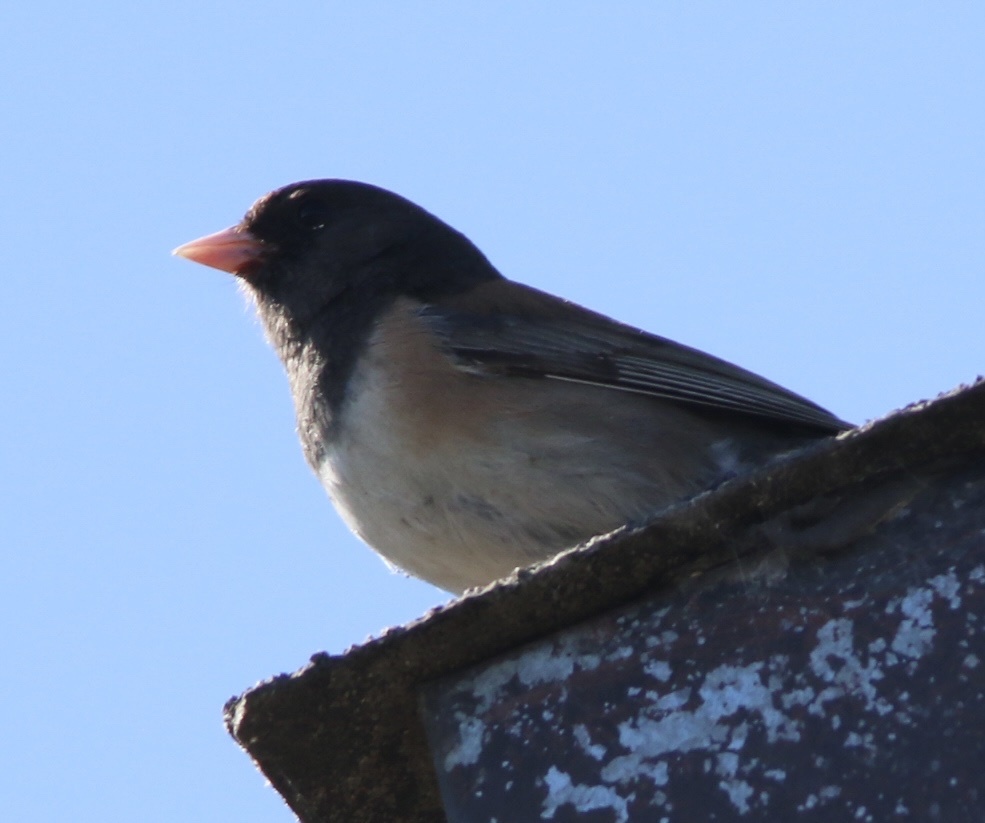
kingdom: Animalia
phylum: Chordata
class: Aves
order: Passeriformes
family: Passerellidae
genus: Junco
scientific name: Junco hyemalis
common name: Dark-eyed junco
